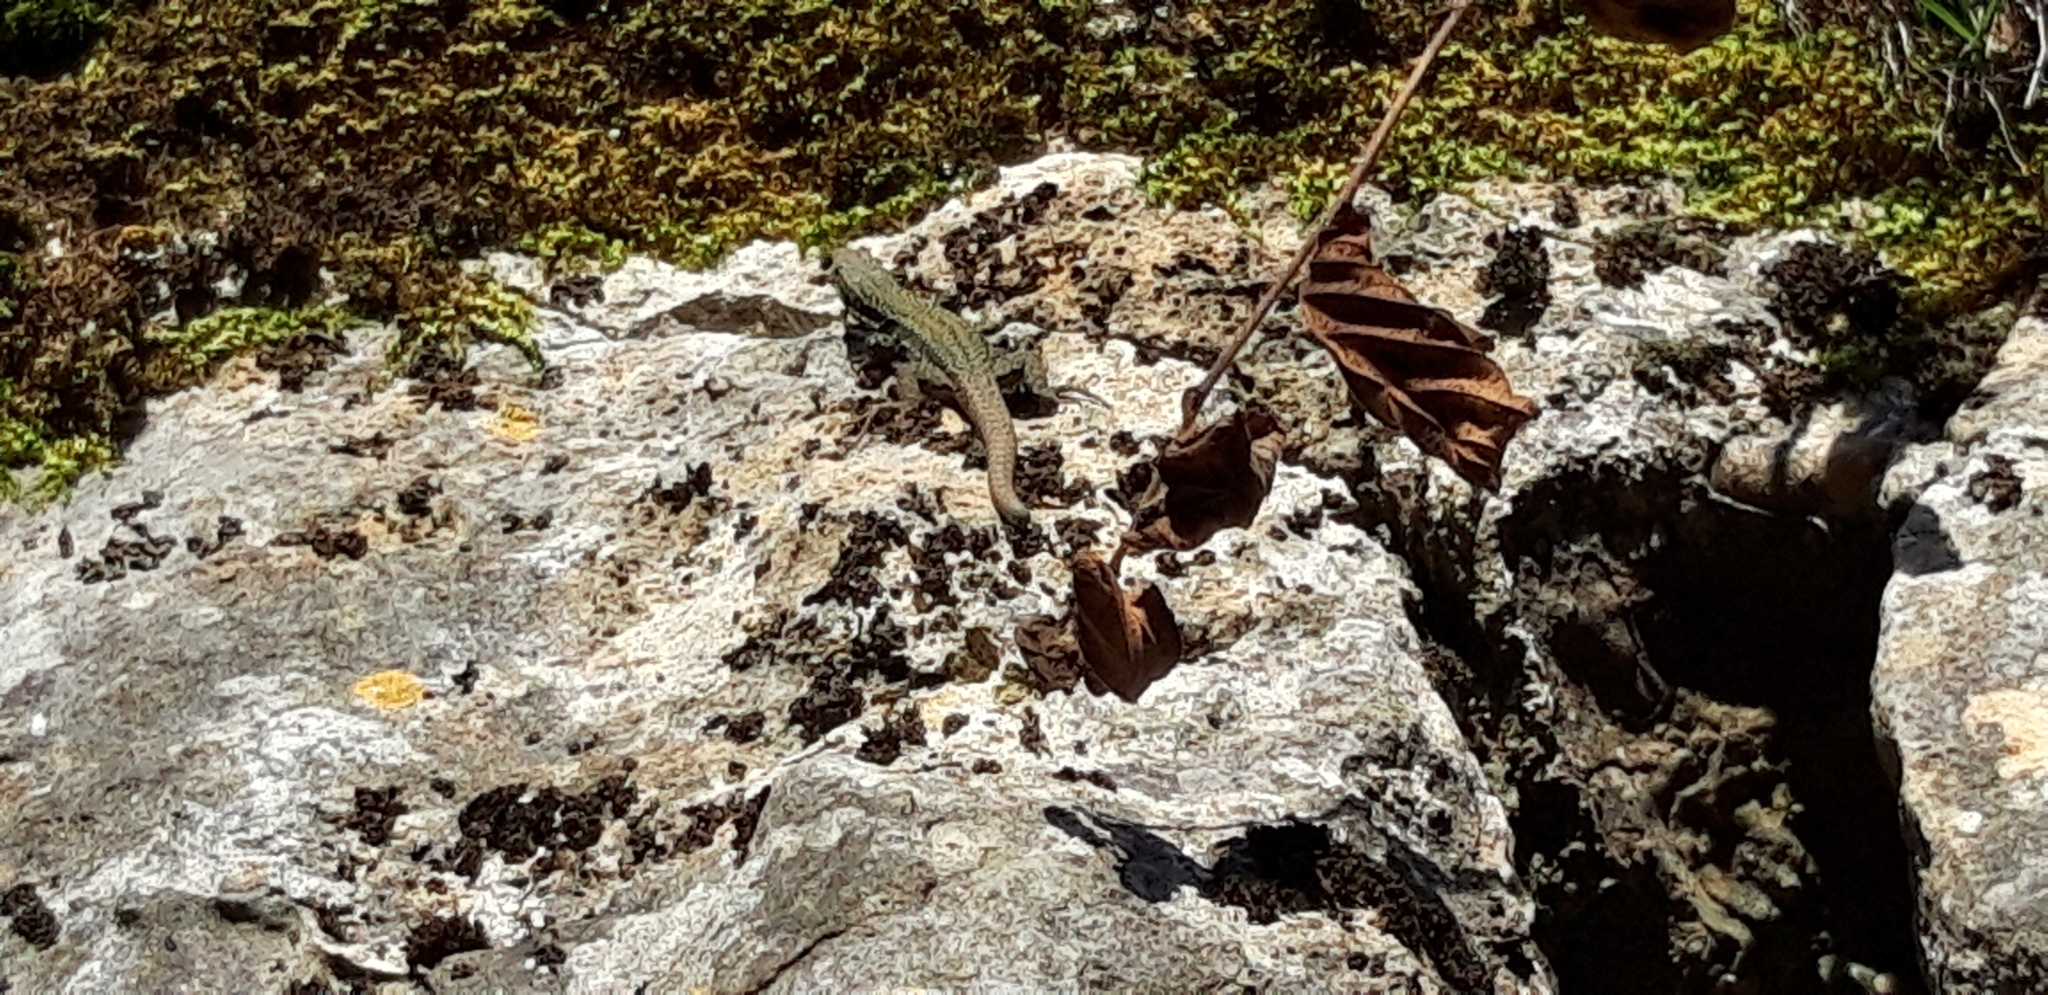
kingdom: Animalia
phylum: Chordata
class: Squamata
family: Lacertidae
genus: Podarcis
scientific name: Podarcis muralis
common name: Common wall lizard
